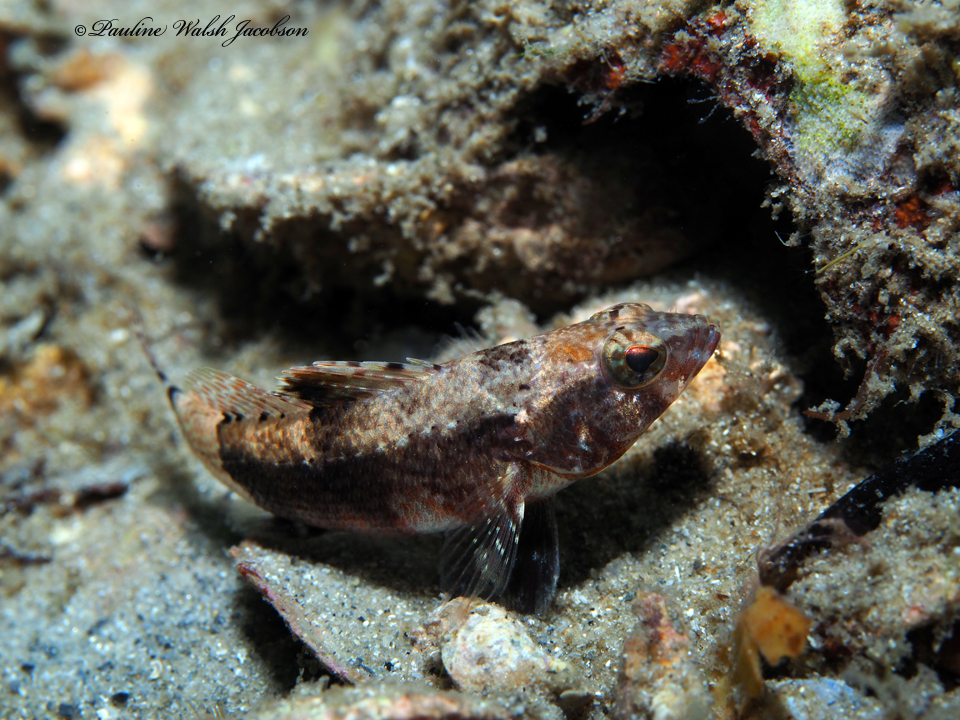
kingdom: Animalia
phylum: Chordata
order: Perciformes
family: Serranidae
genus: Serraniculus
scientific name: Serraniculus pumilio
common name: Pygmy sea bass
